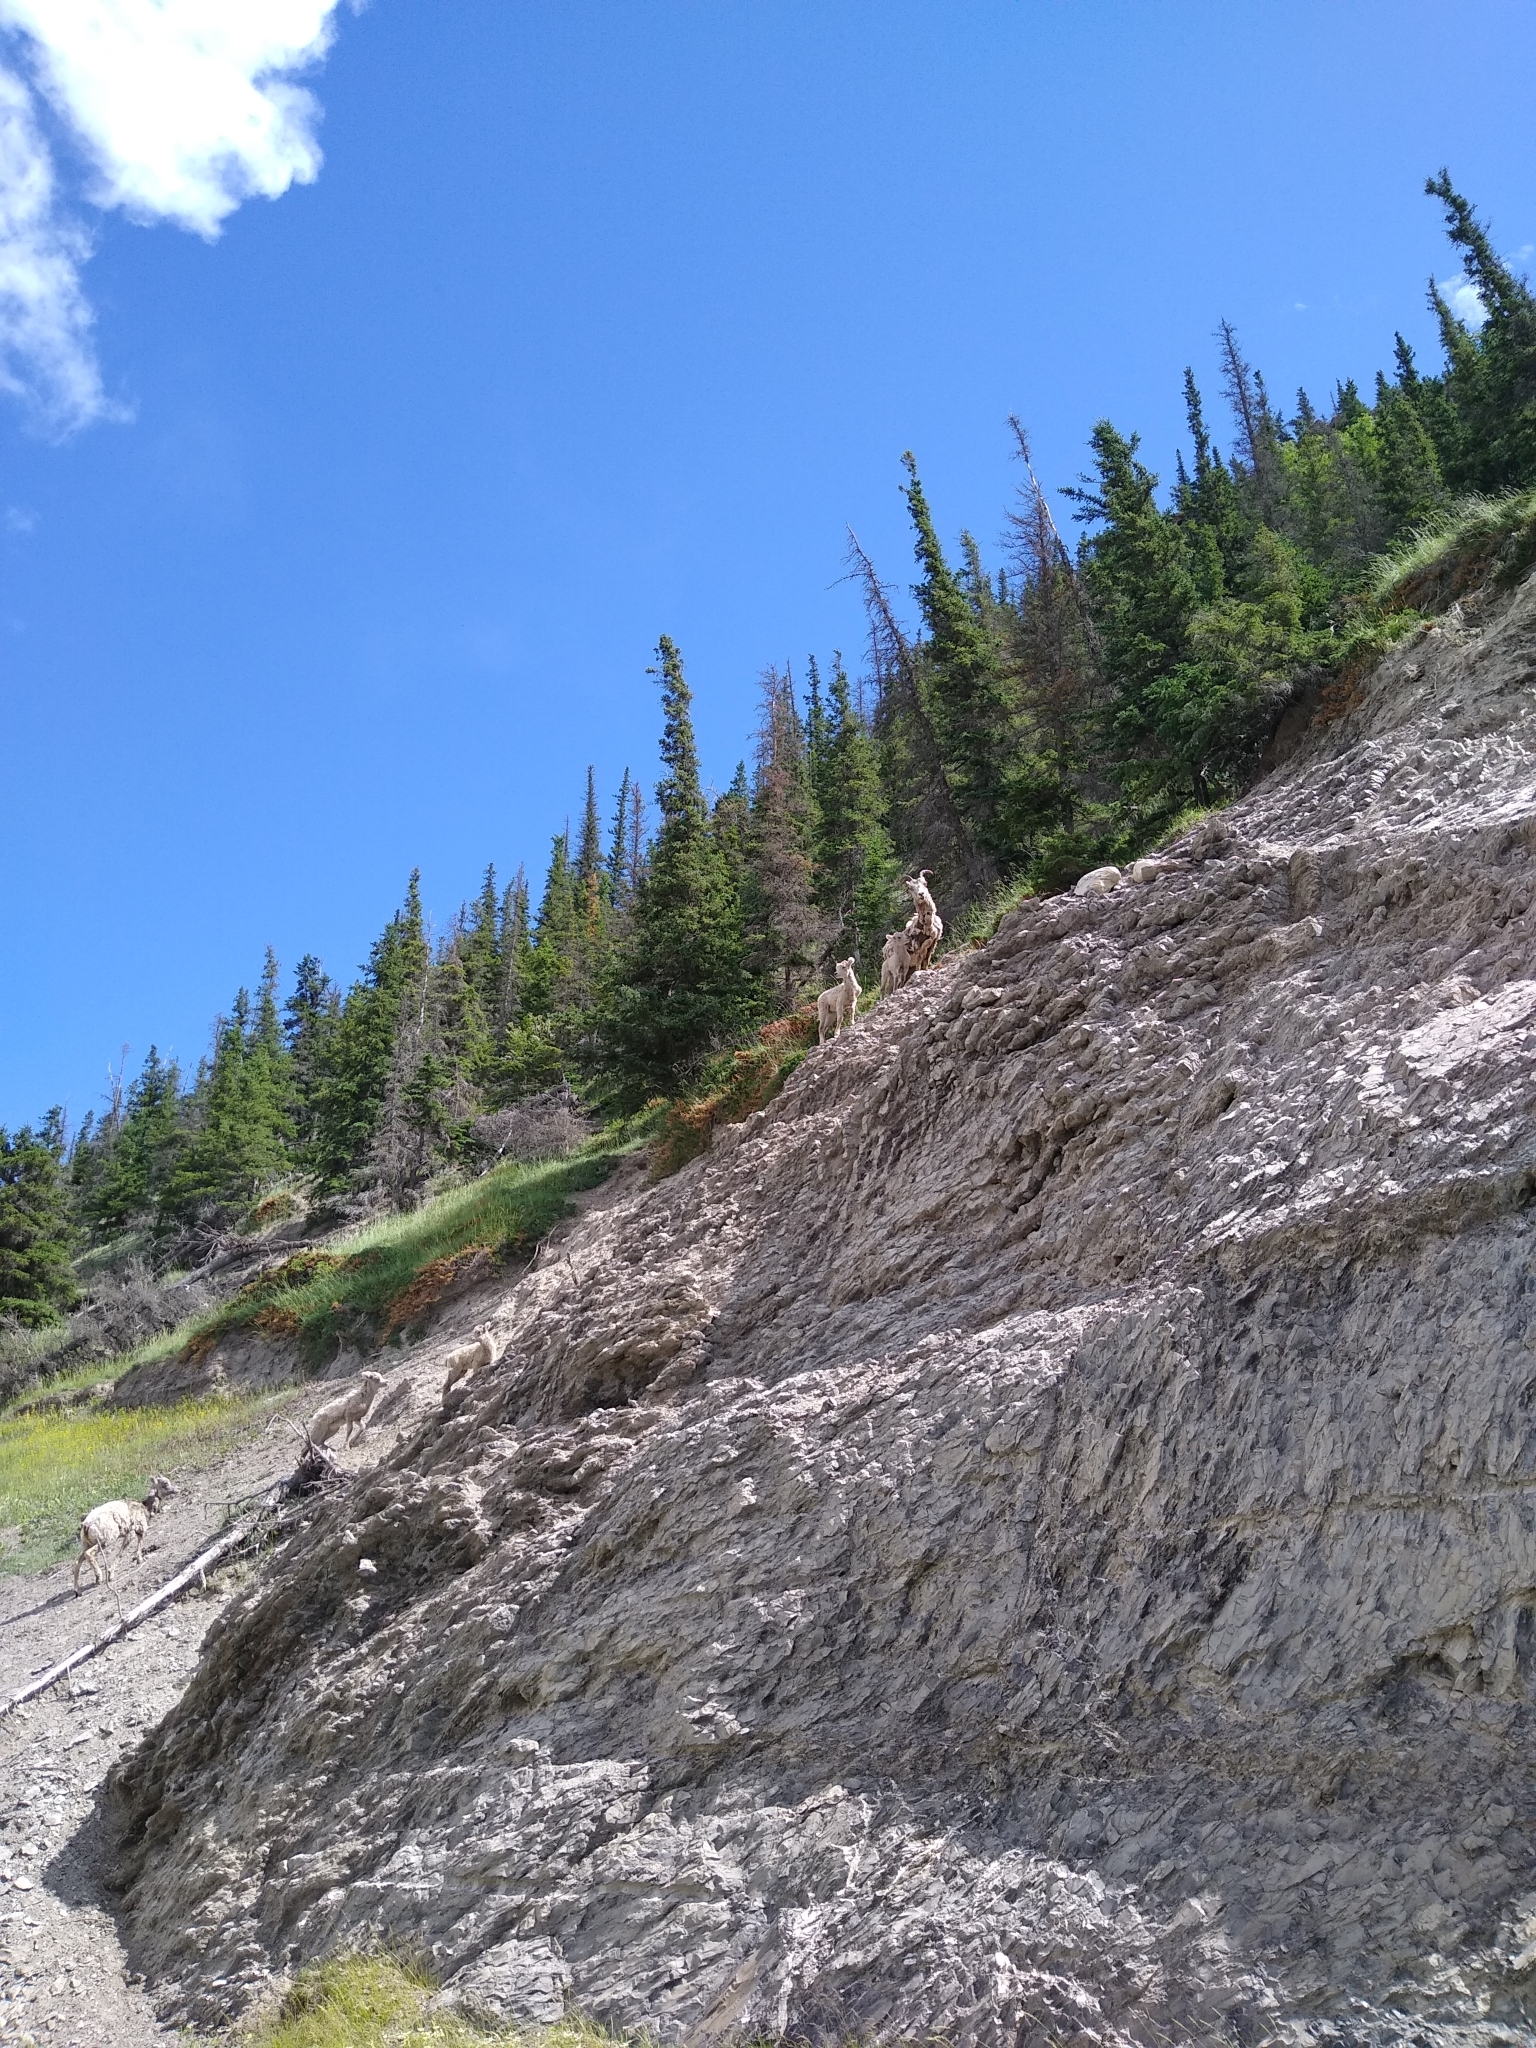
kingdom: Animalia
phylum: Chordata
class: Mammalia
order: Artiodactyla
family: Bovidae
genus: Ovis
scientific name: Ovis canadensis
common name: Bighorn sheep
